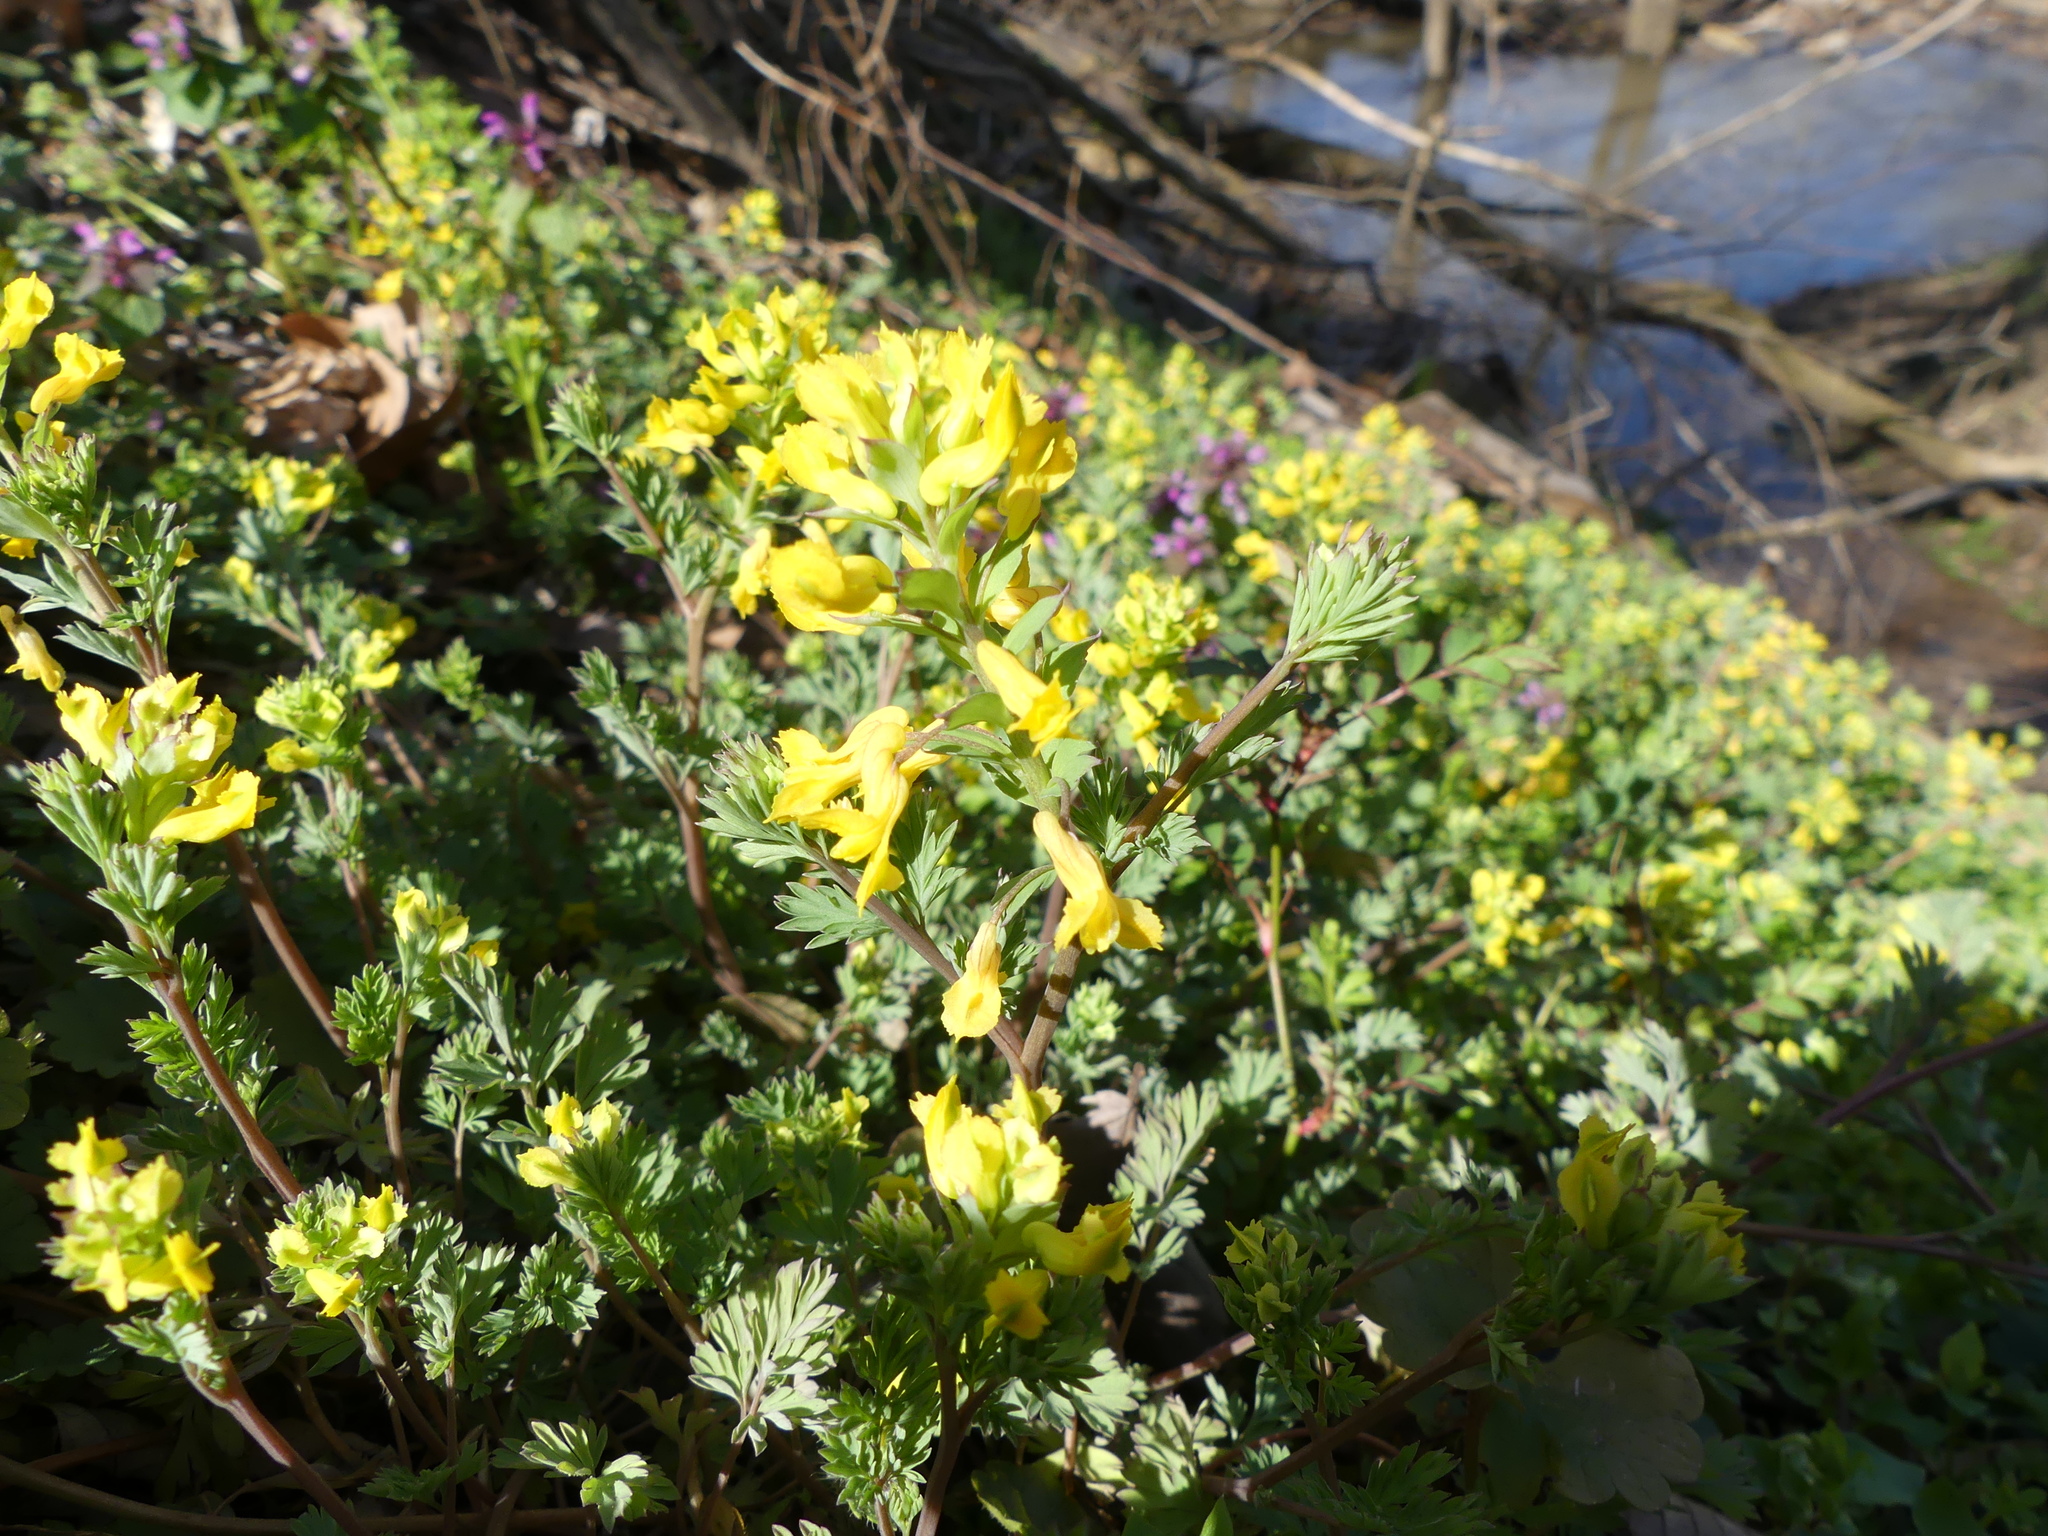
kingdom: Plantae
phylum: Tracheophyta
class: Magnoliopsida
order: Ranunculales
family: Papaveraceae
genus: Corydalis
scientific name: Corydalis flavula
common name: Yellow corydalis
